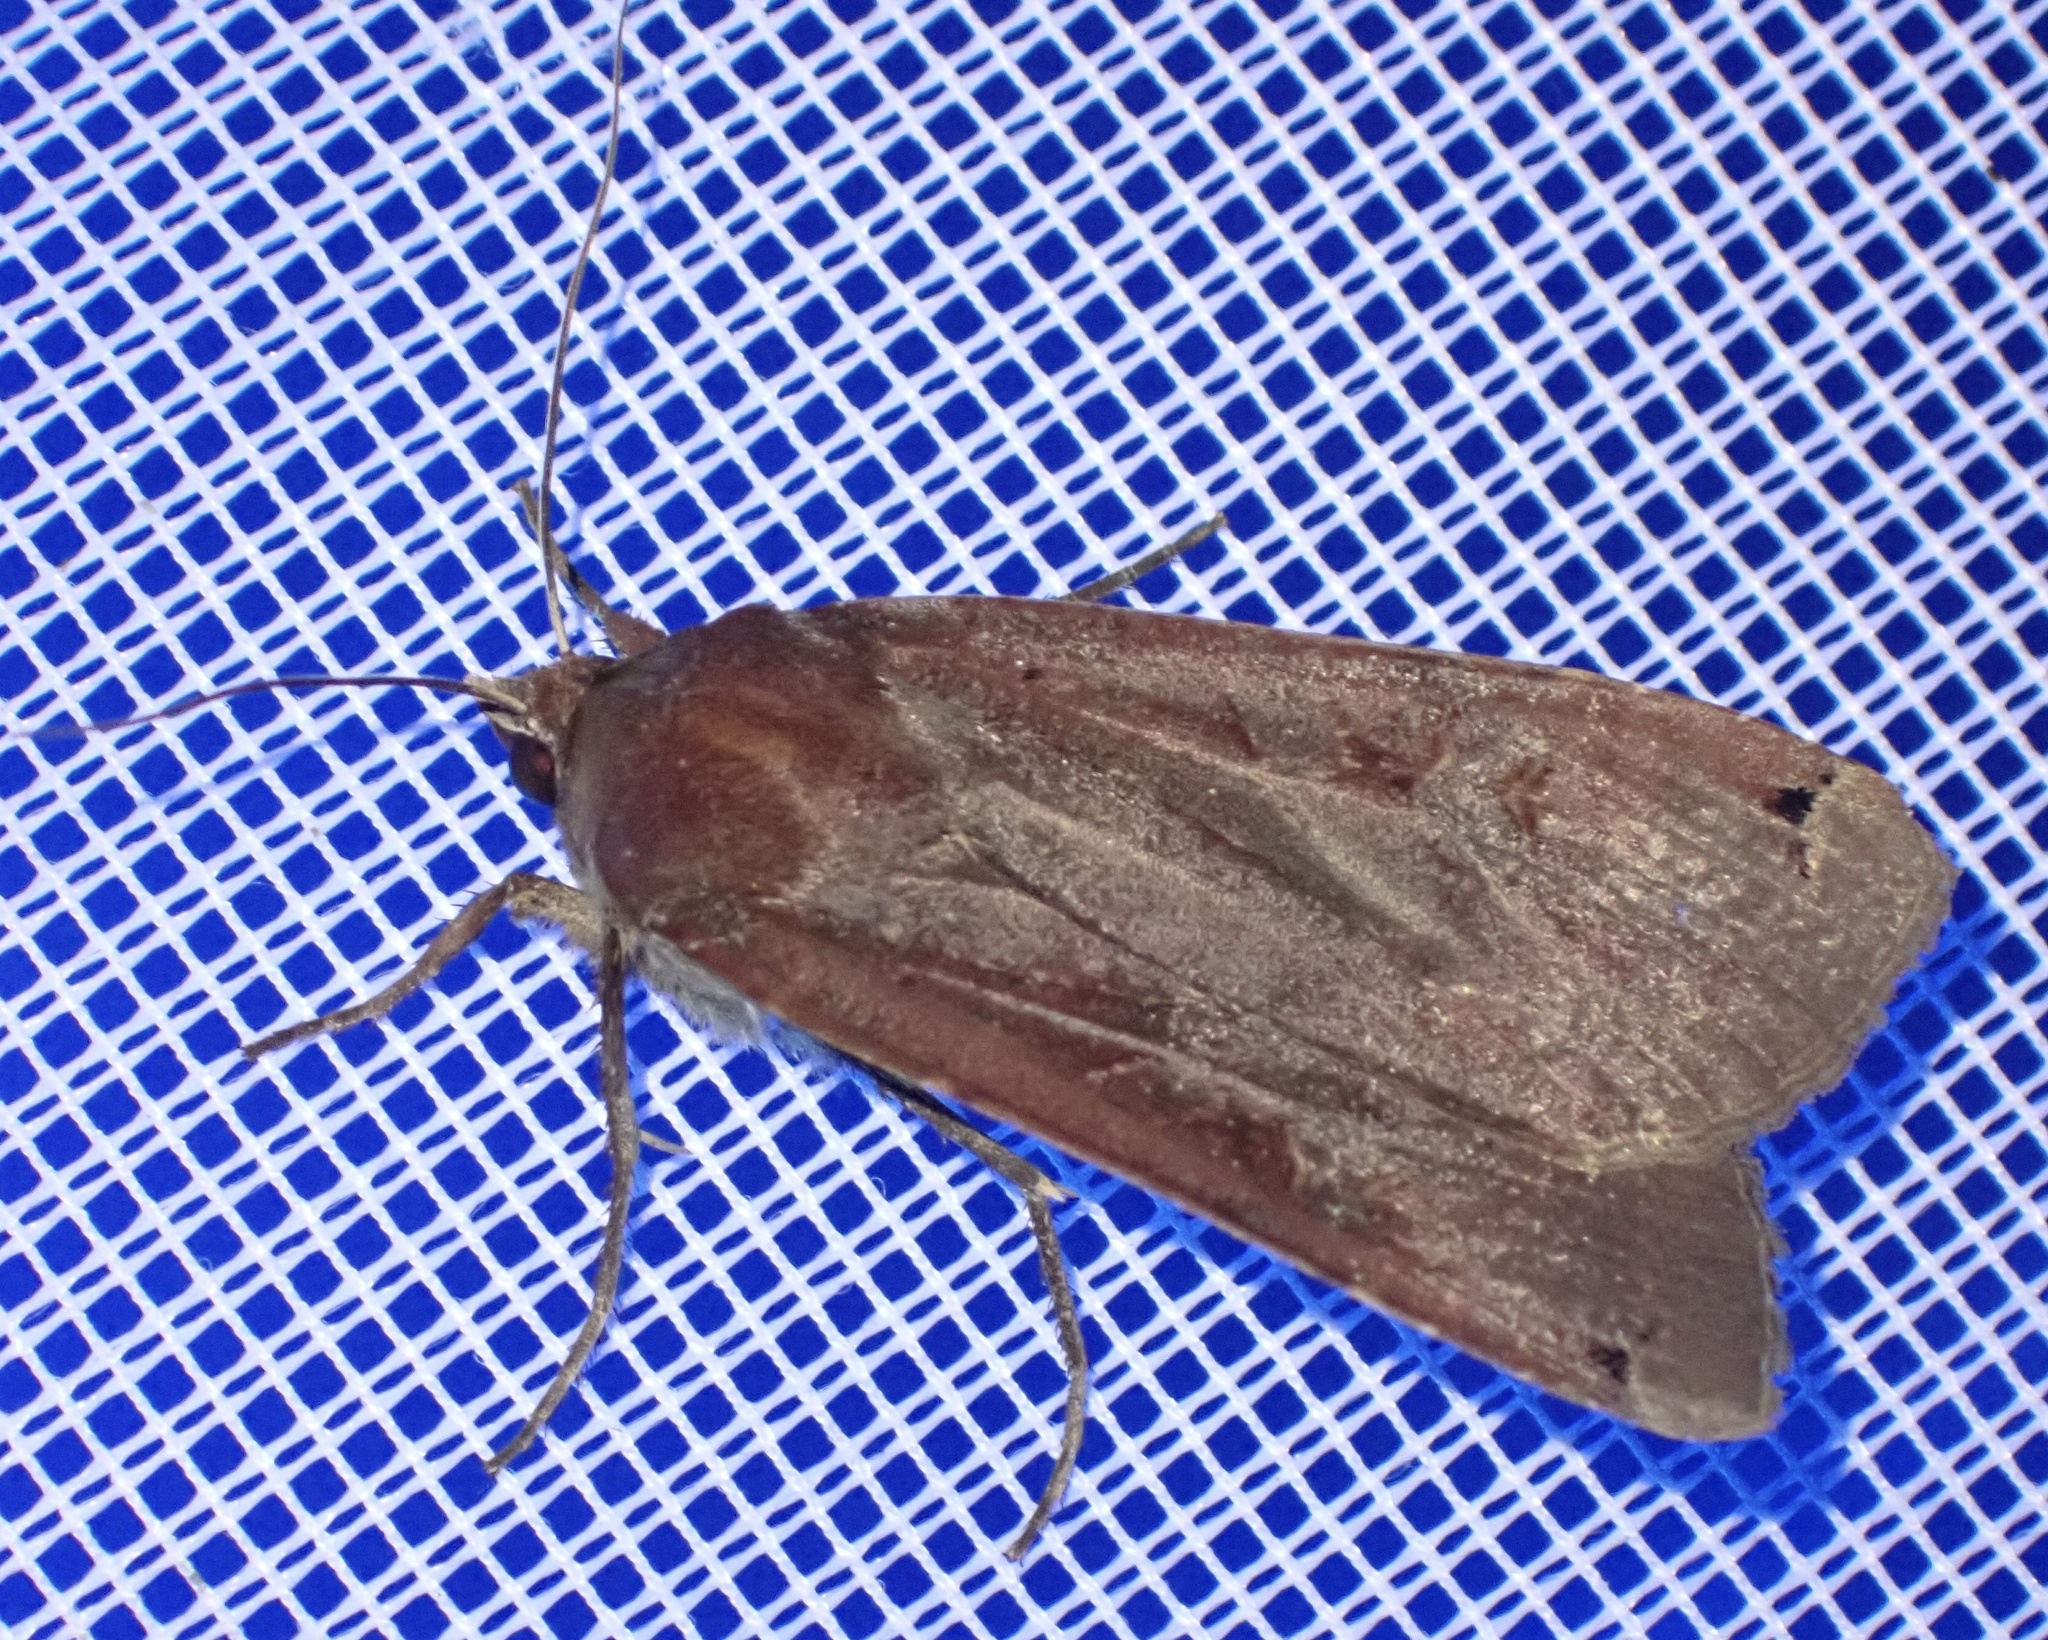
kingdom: Animalia
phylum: Arthropoda
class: Insecta
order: Lepidoptera
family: Noctuidae
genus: Noctua
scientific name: Noctua pronuba
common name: Large yellow underwing
